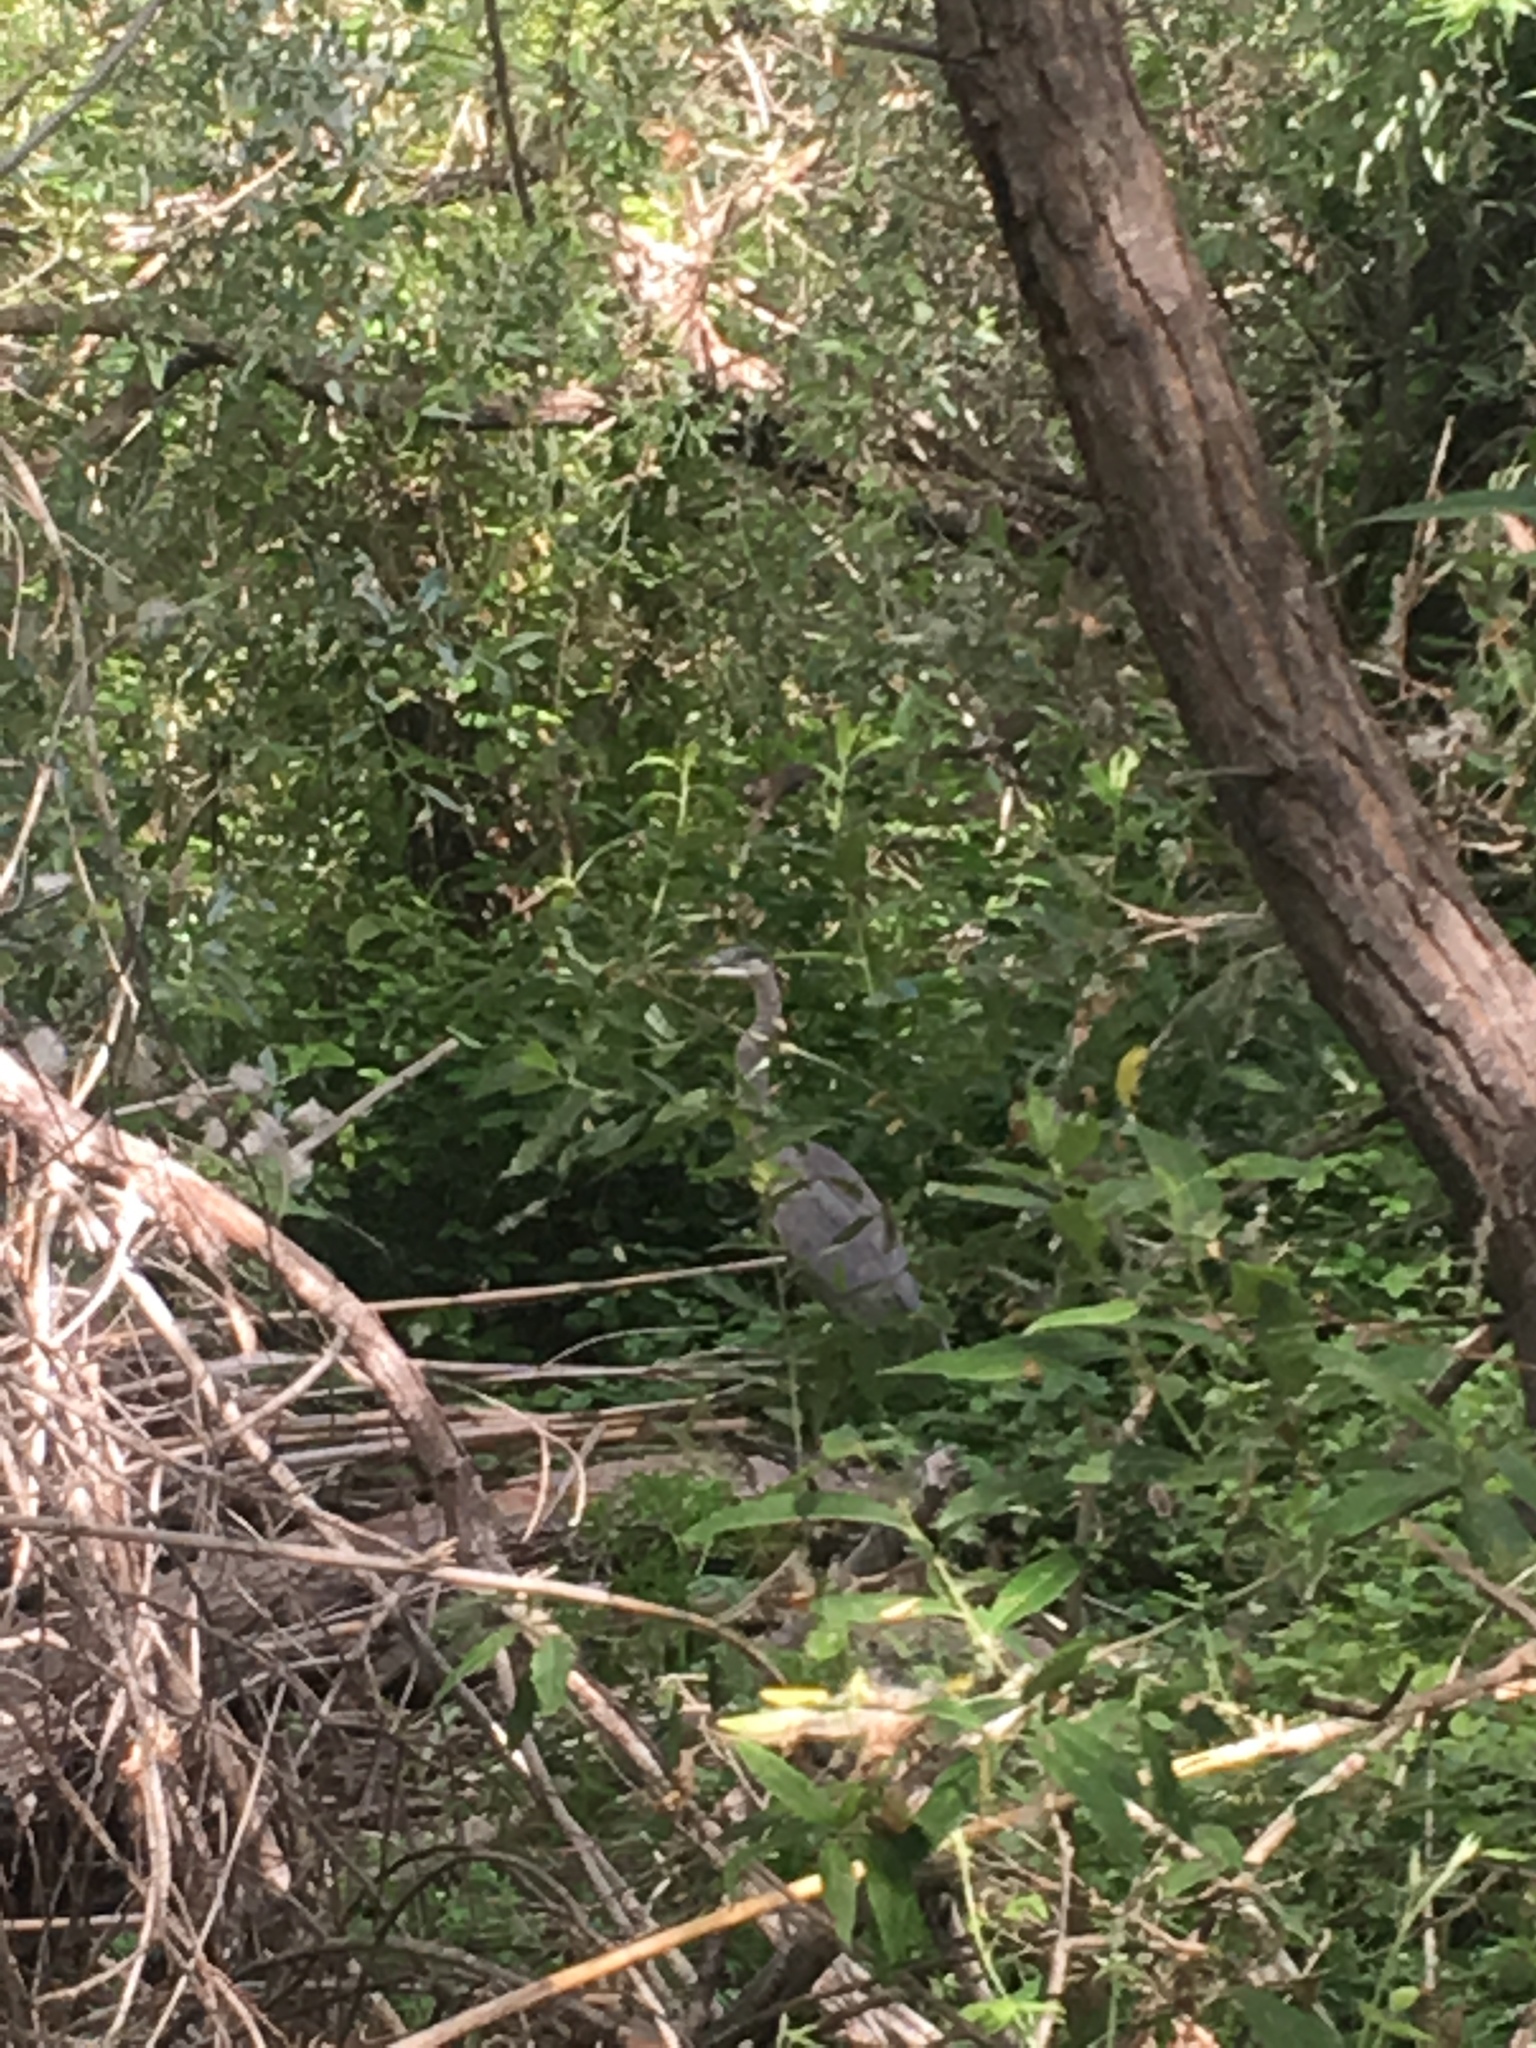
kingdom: Animalia
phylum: Chordata
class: Aves
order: Pelecaniformes
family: Ardeidae
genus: Ardea
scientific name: Ardea herodias
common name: Great blue heron
